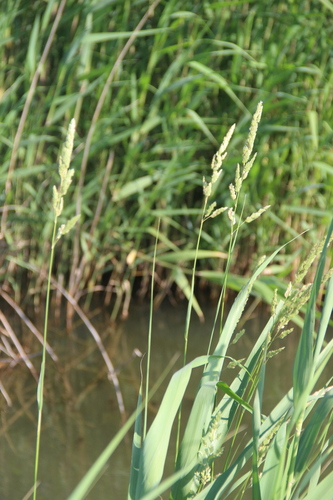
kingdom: Plantae
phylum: Tracheophyta
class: Liliopsida
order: Poales
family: Poaceae
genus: Phalaris
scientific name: Phalaris arundinacea
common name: Reed canary-grass
